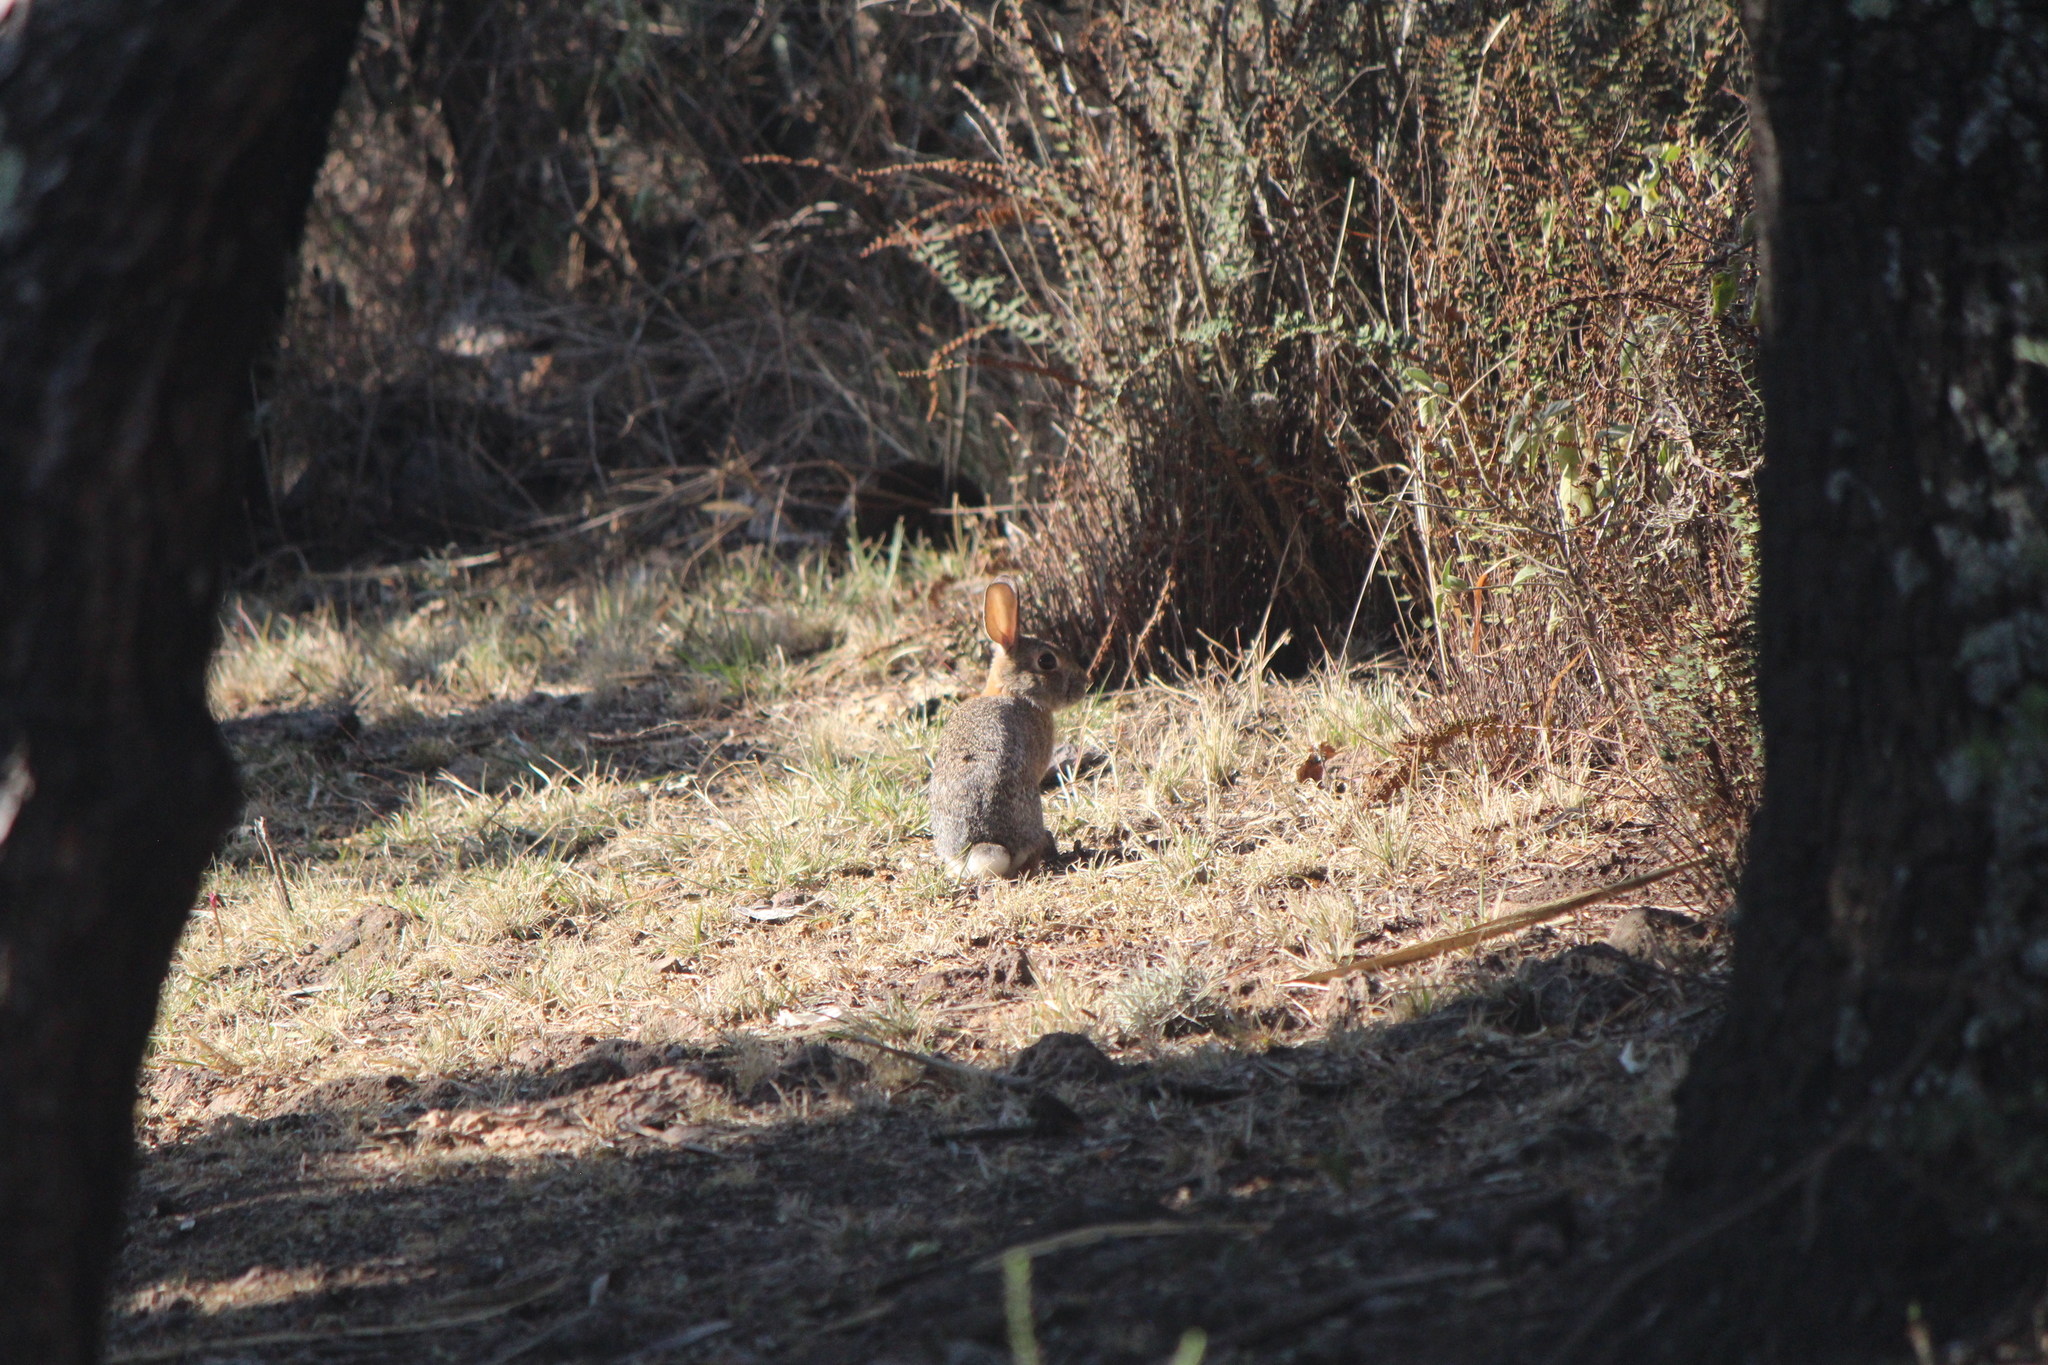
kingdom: Animalia
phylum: Chordata
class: Mammalia
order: Lagomorpha
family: Leporidae
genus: Sylvilagus
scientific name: Sylvilagus audubonii
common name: Desert cottontail
